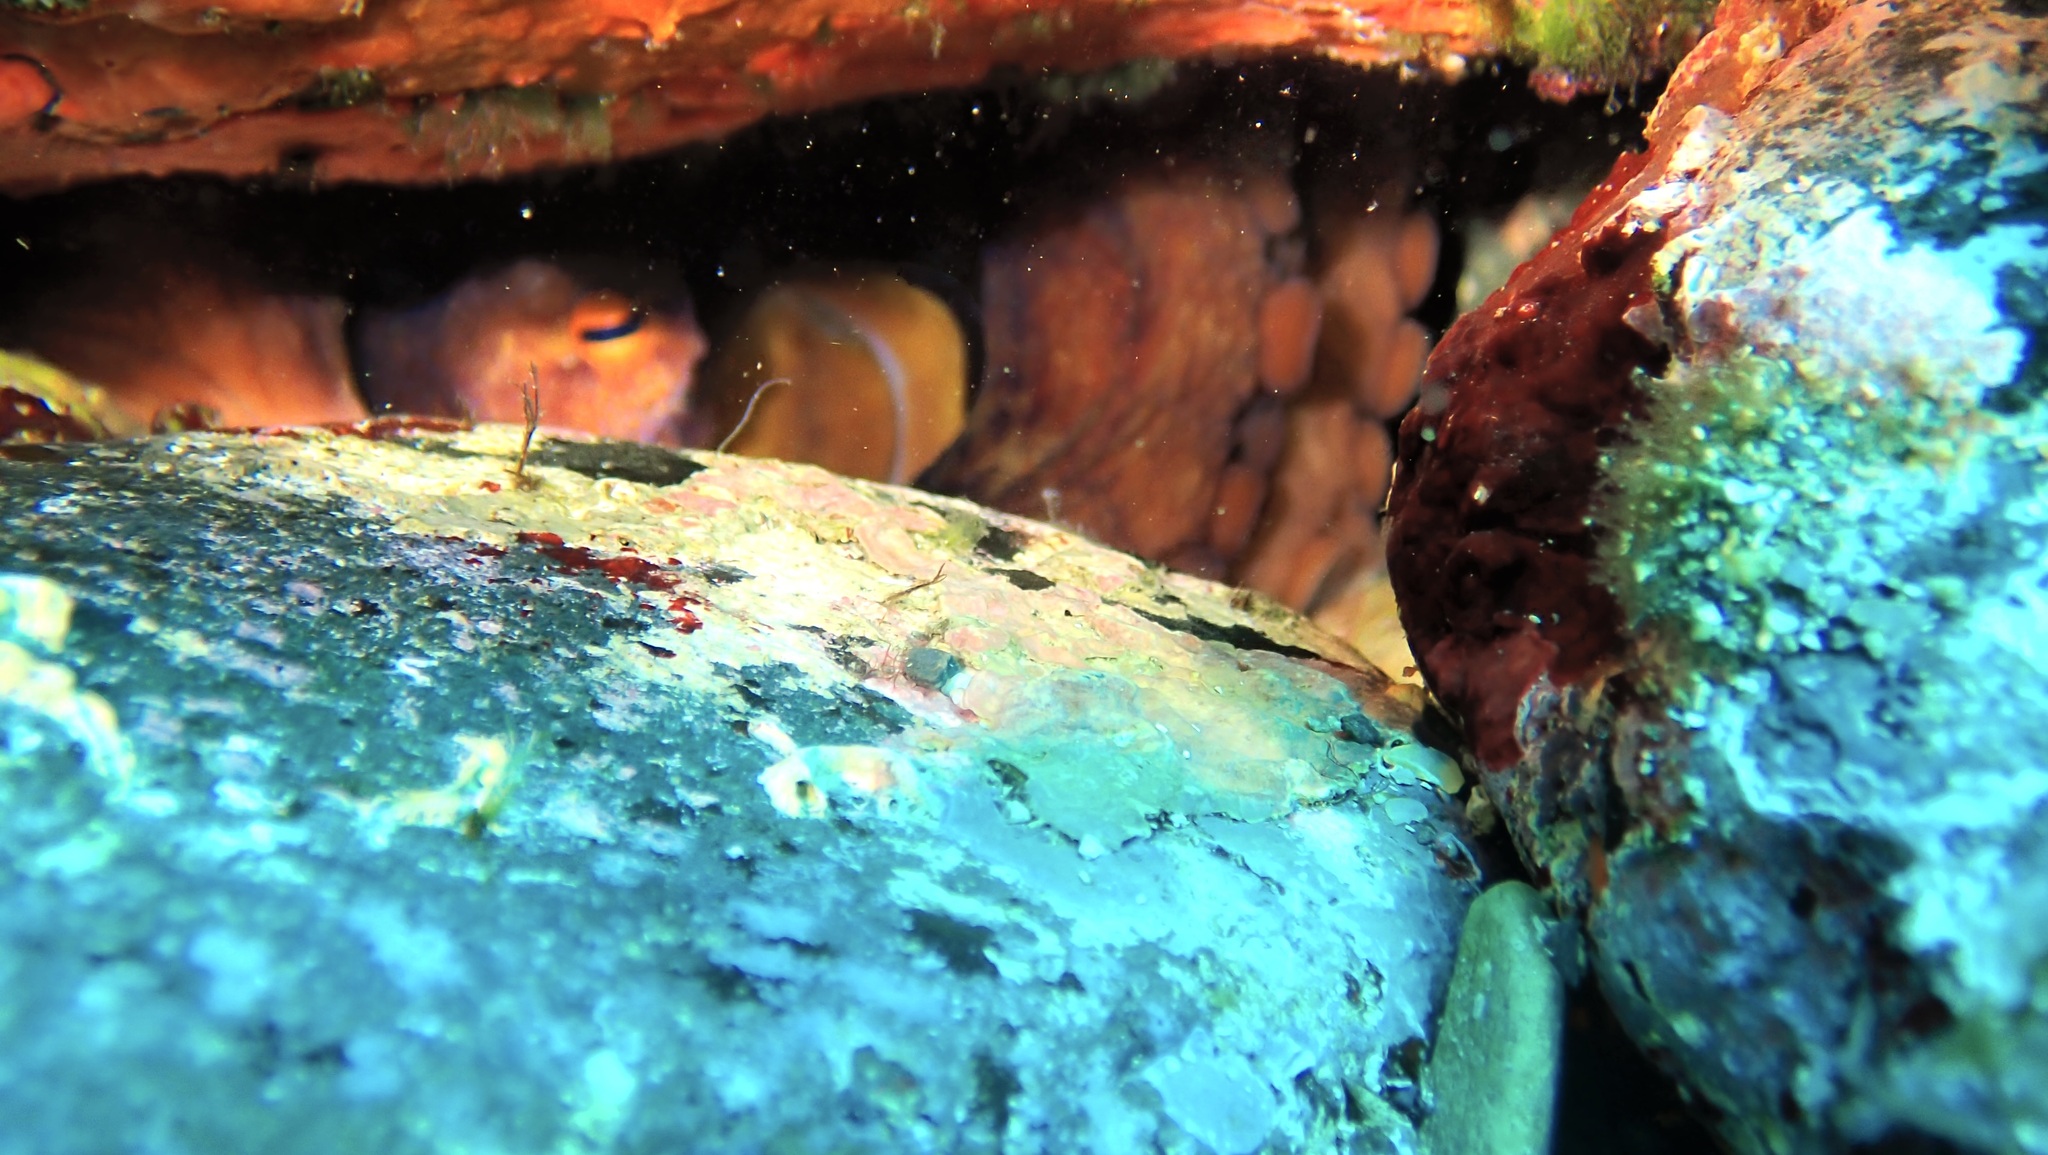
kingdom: Animalia
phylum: Mollusca
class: Cephalopoda
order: Octopoda
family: Octopodidae
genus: Octopus
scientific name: Octopus vulgaris
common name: Common octopus
